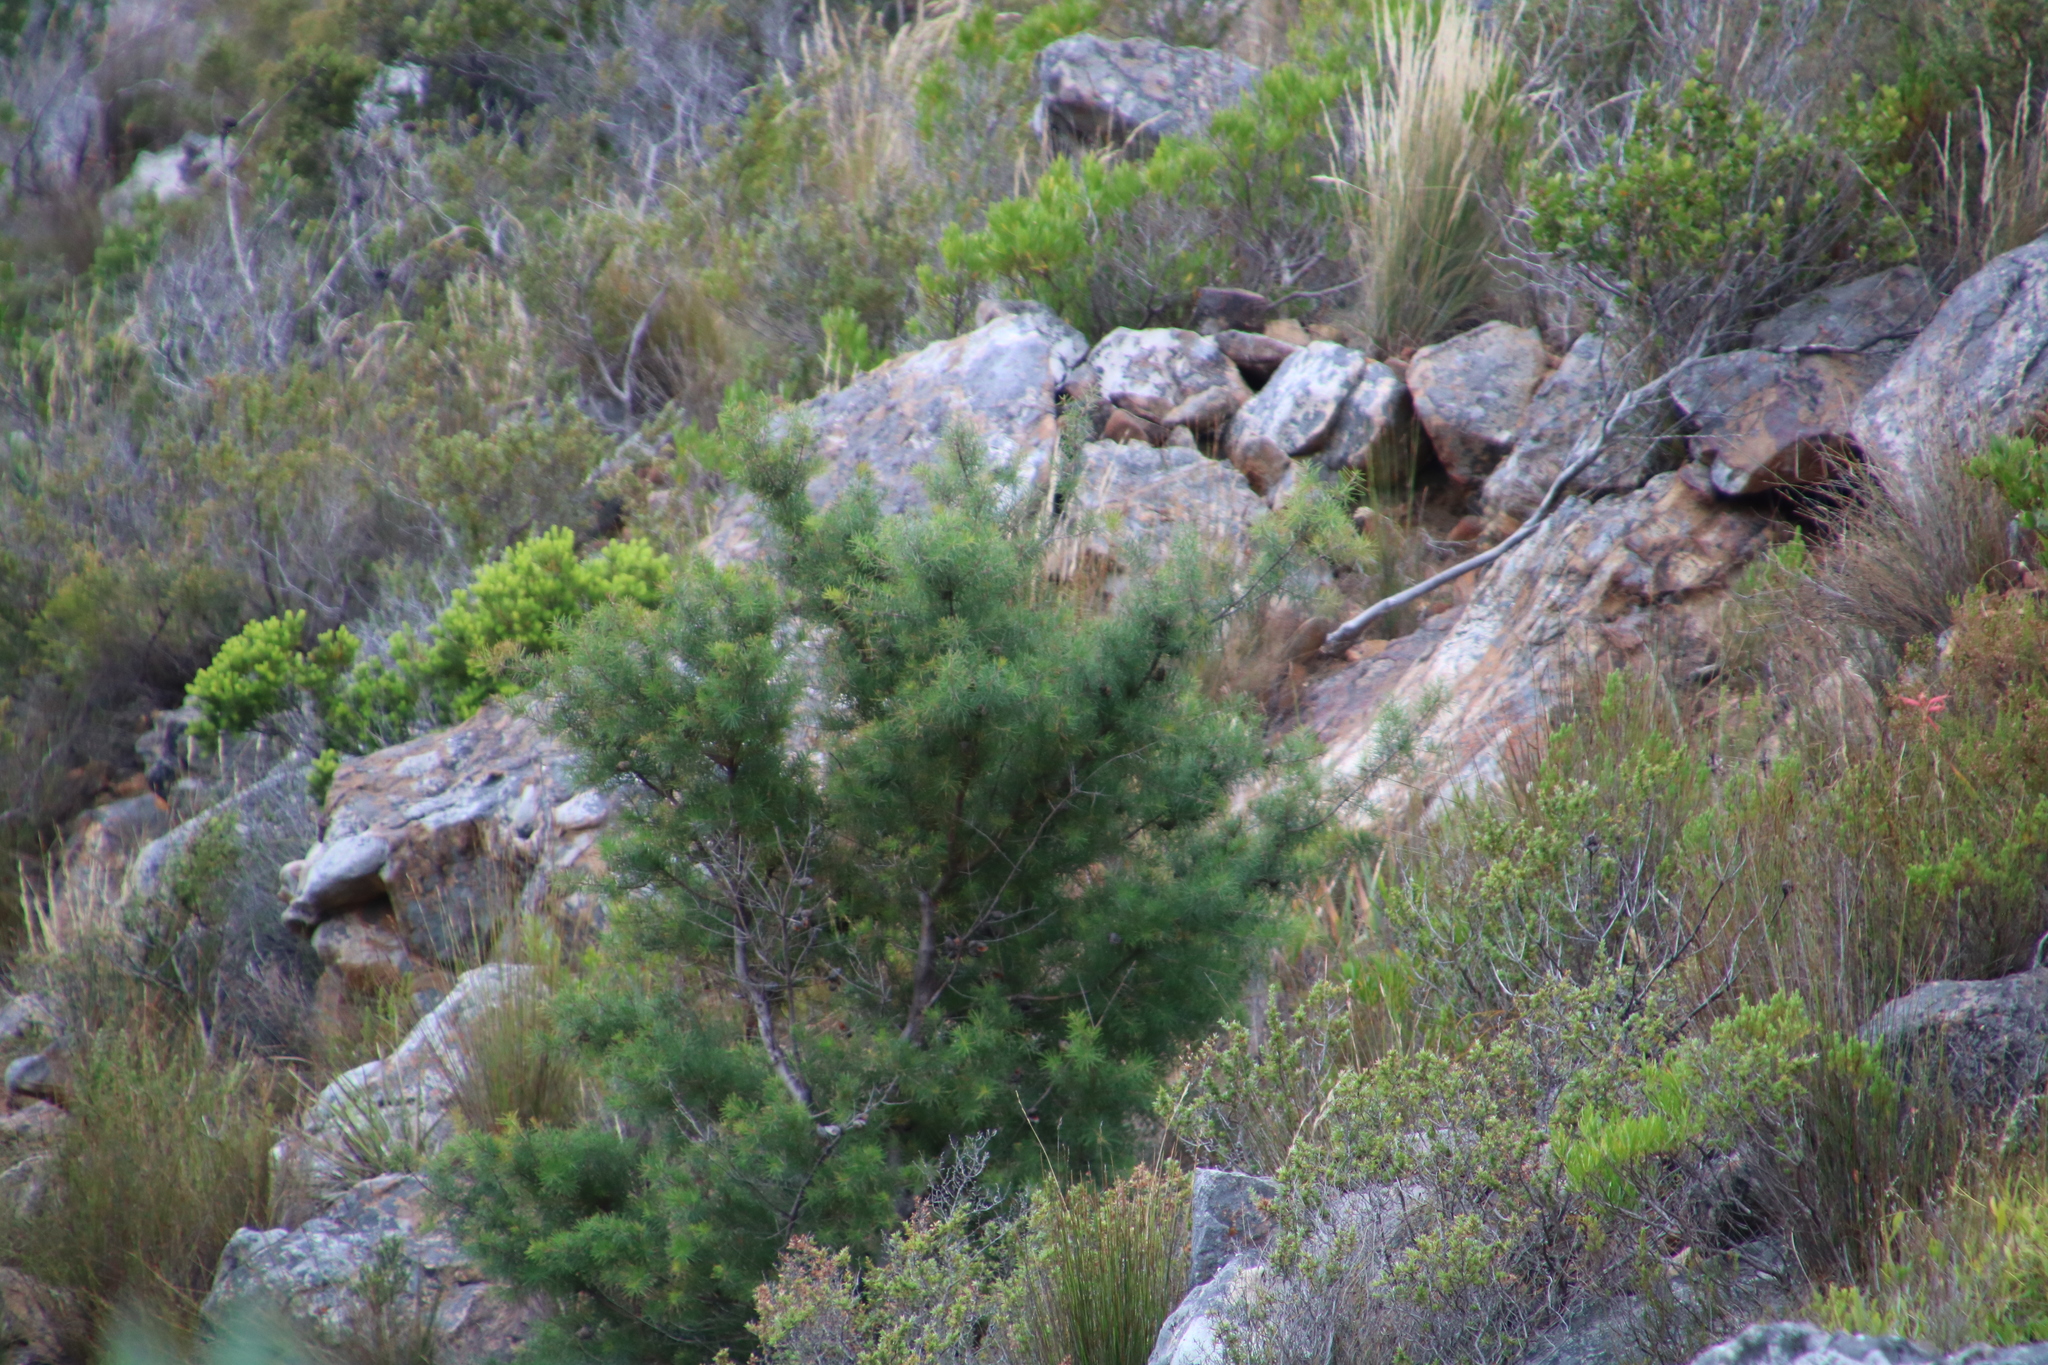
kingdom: Plantae
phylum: Tracheophyta
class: Magnoliopsida
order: Proteales
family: Proteaceae
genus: Hakea
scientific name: Hakea sericea
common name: Needle bush
